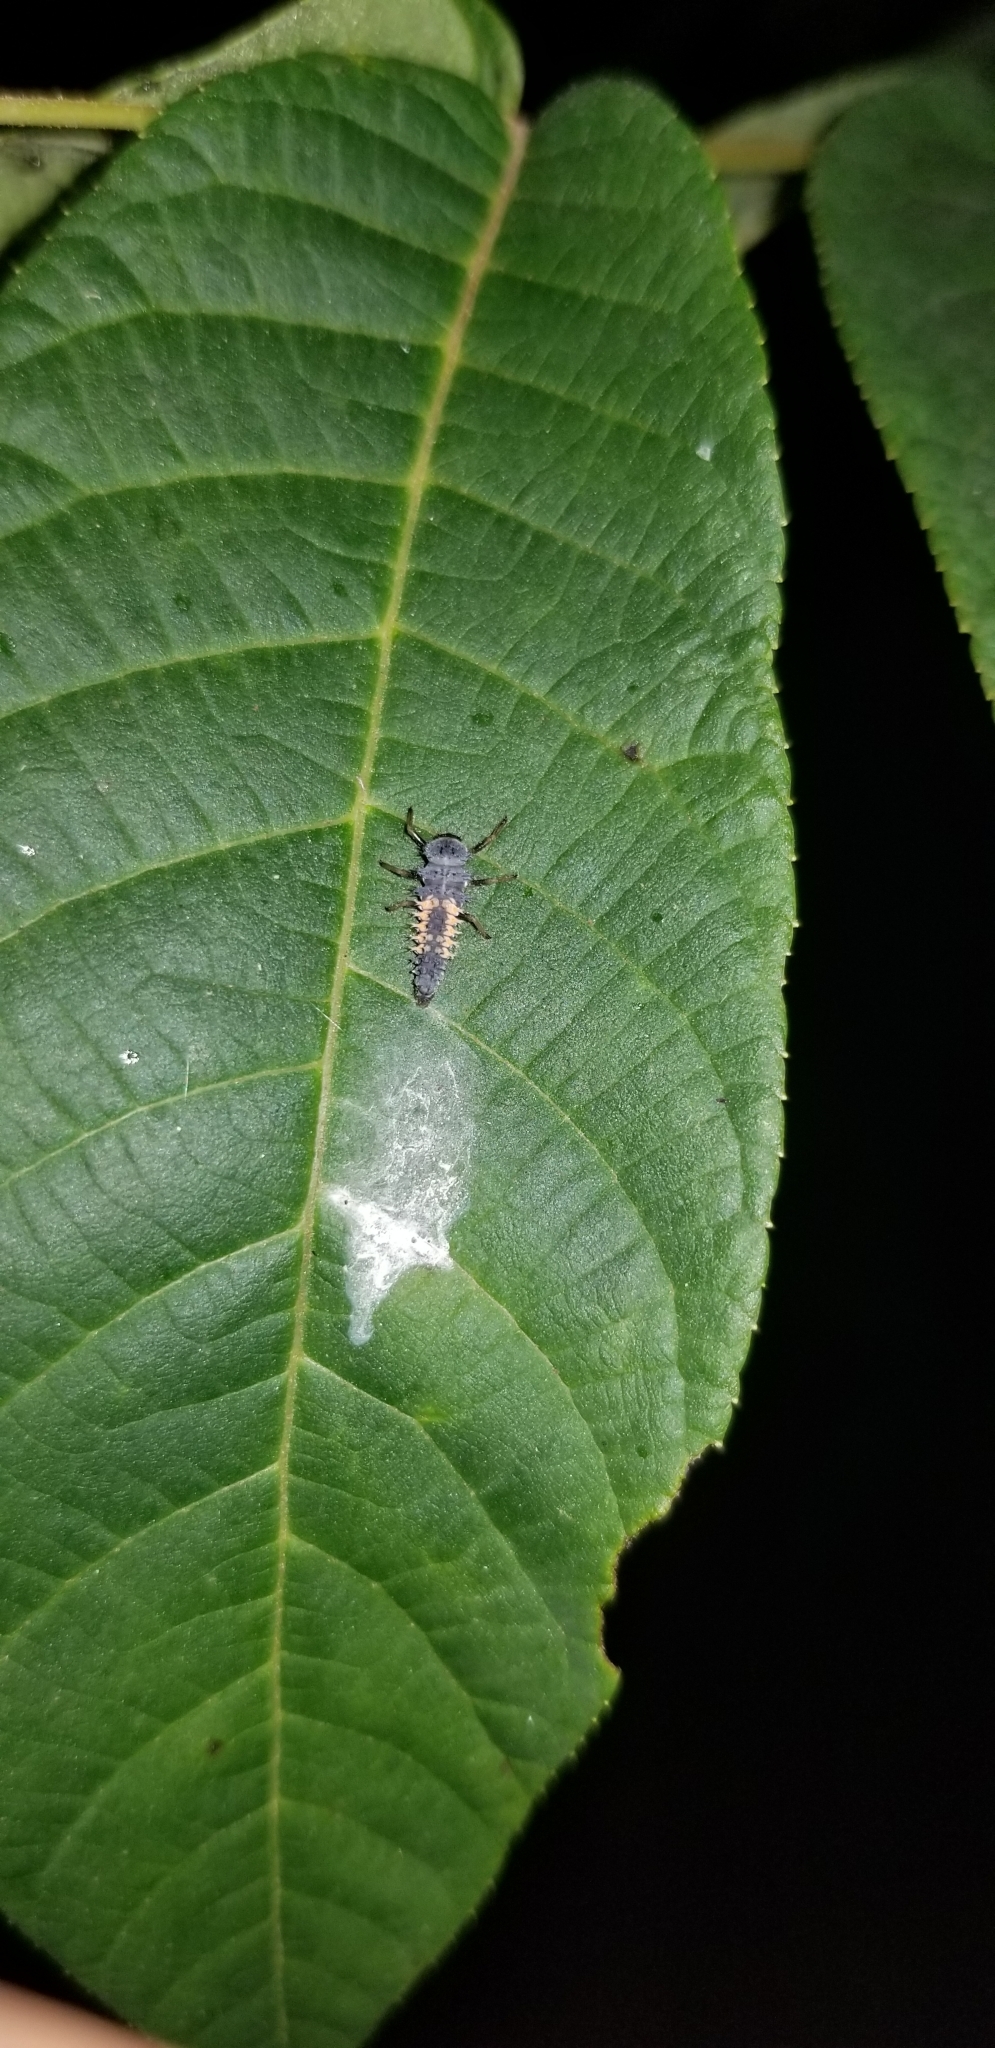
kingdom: Animalia
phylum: Arthropoda
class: Insecta
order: Coleoptera
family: Coccinellidae
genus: Harmonia
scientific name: Harmonia axyridis
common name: Harlequin ladybird
